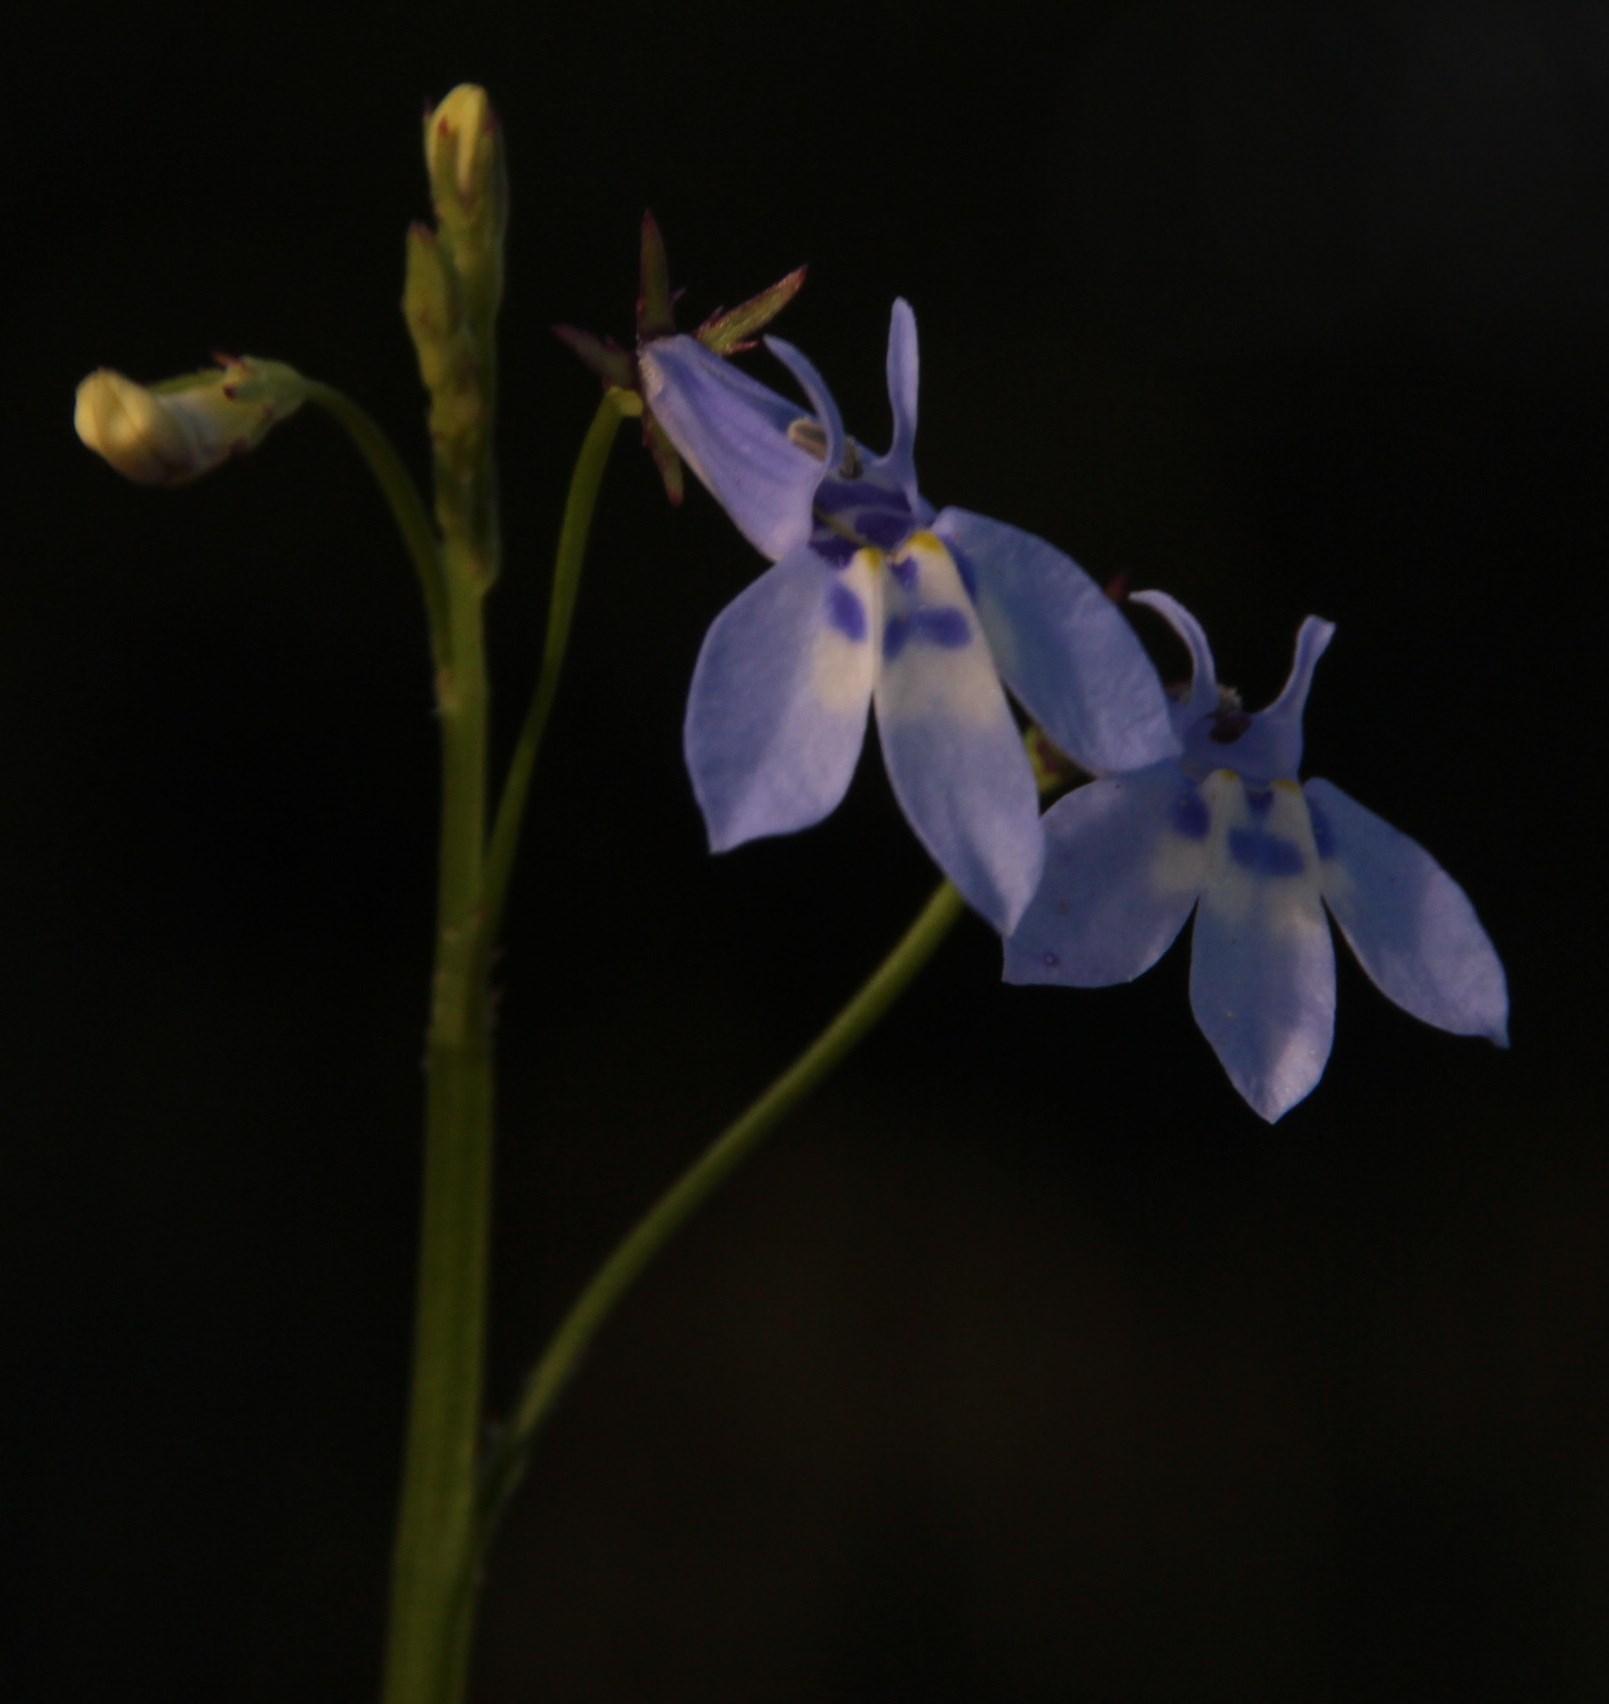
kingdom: Plantae
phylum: Tracheophyta
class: Magnoliopsida
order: Asterales
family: Campanulaceae
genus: Lobelia
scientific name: Lobelia flaccida
